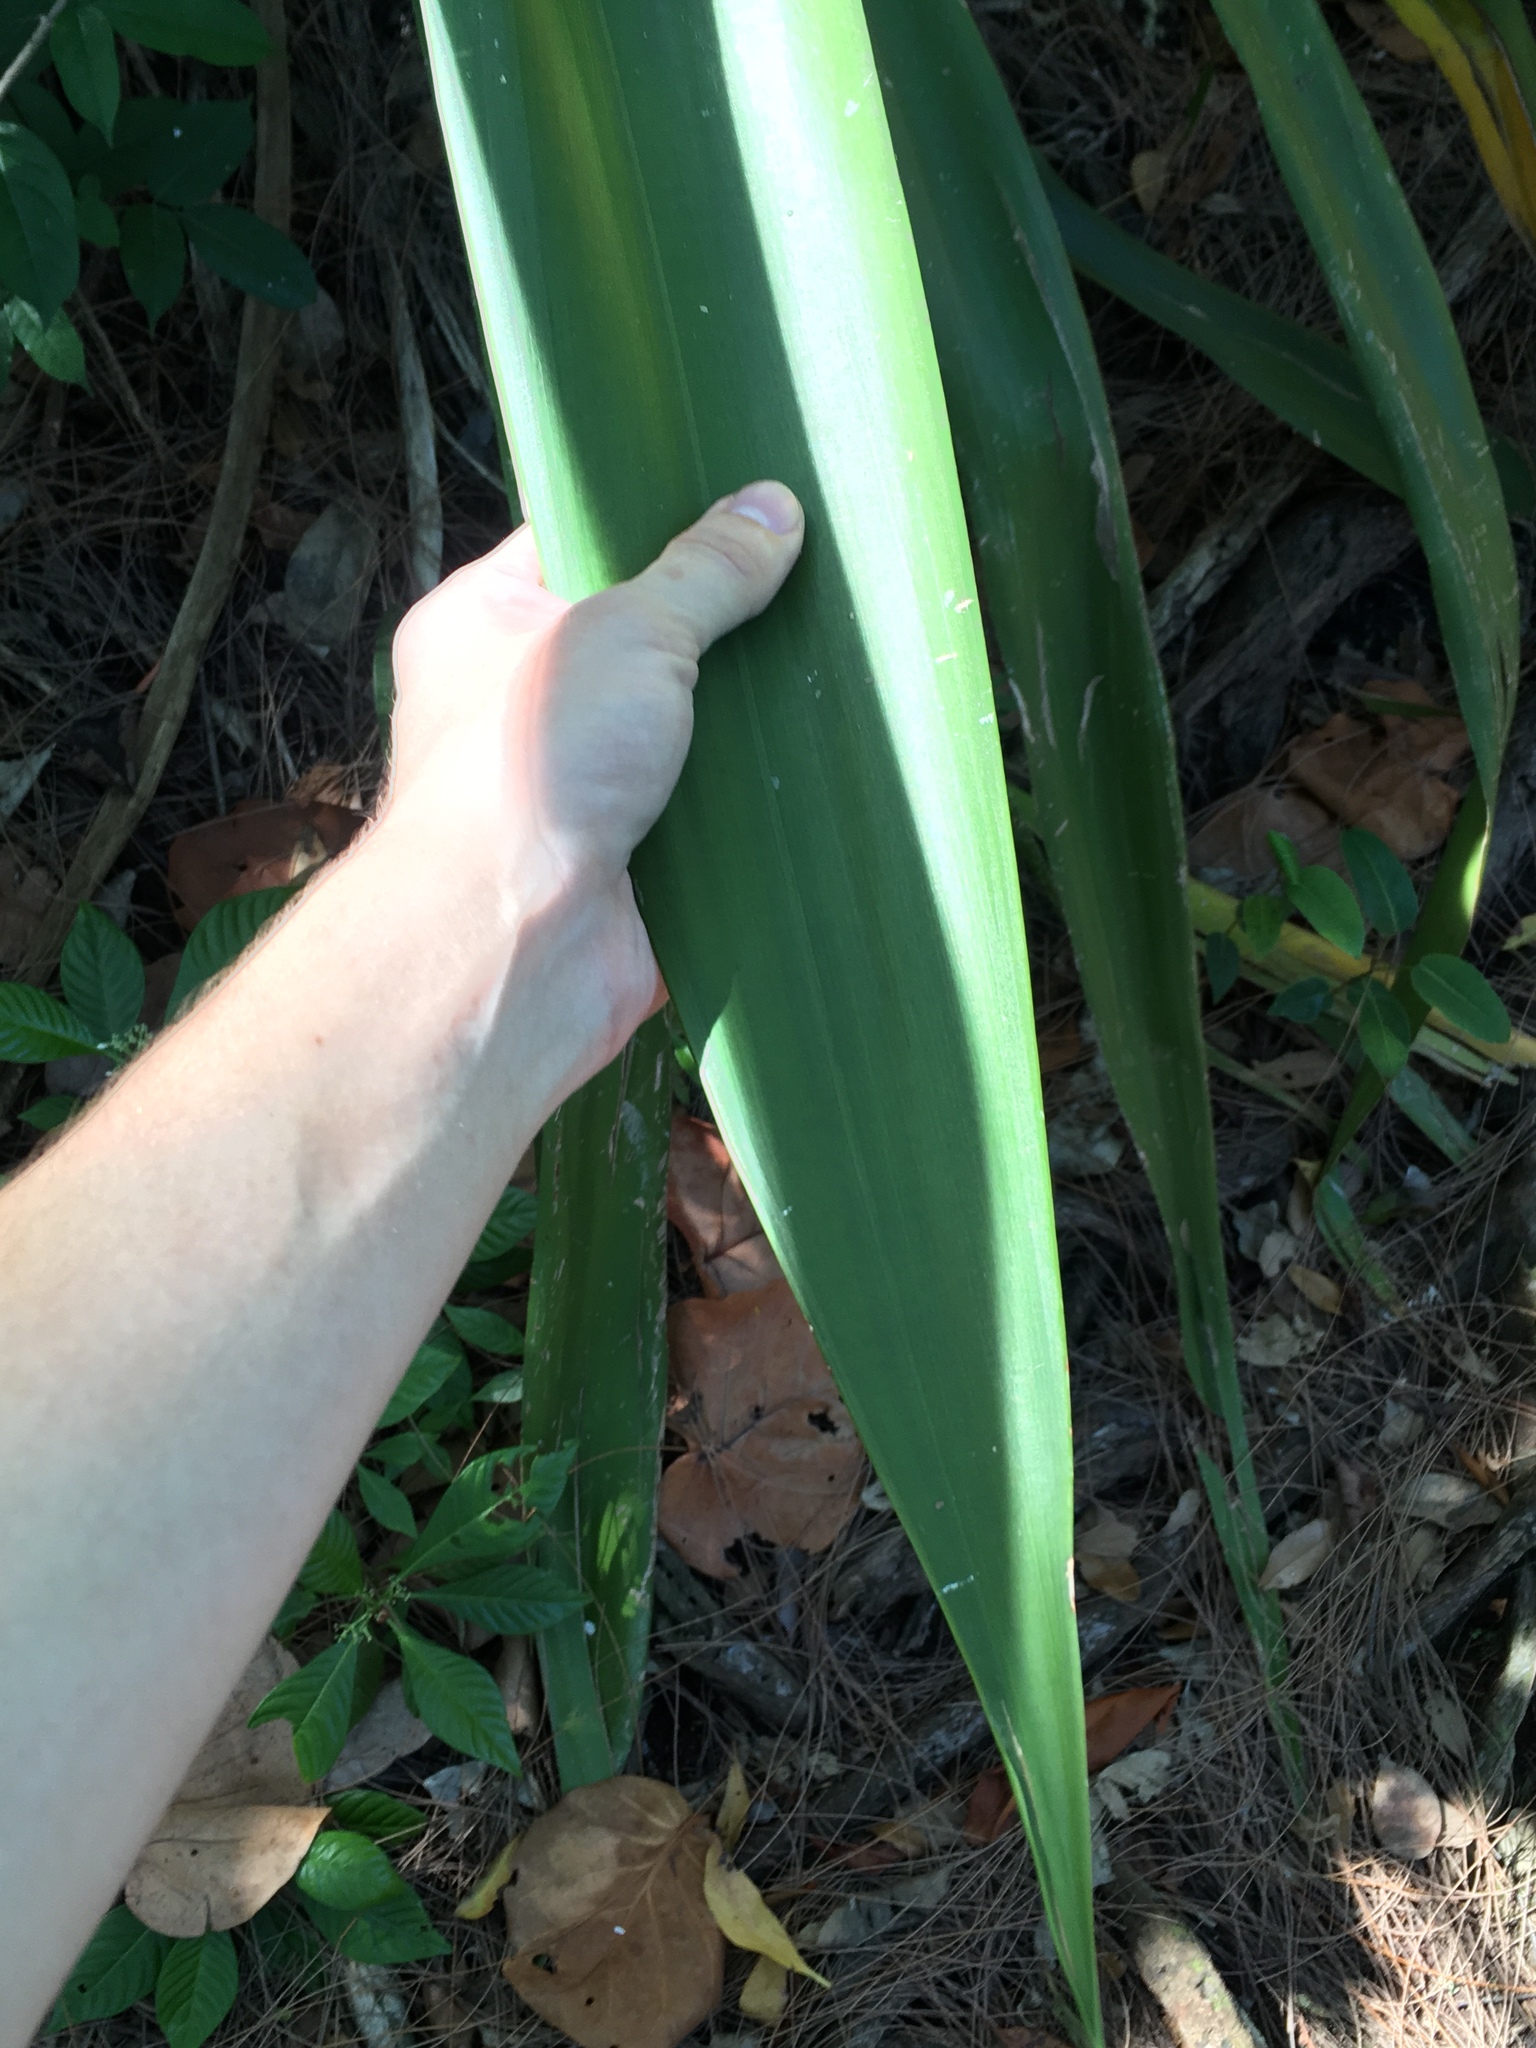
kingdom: Plantae
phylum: Tracheophyta
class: Liliopsida
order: Asparagales
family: Asparagaceae
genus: Agave
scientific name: Agave sisalana
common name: Sisal hemp
